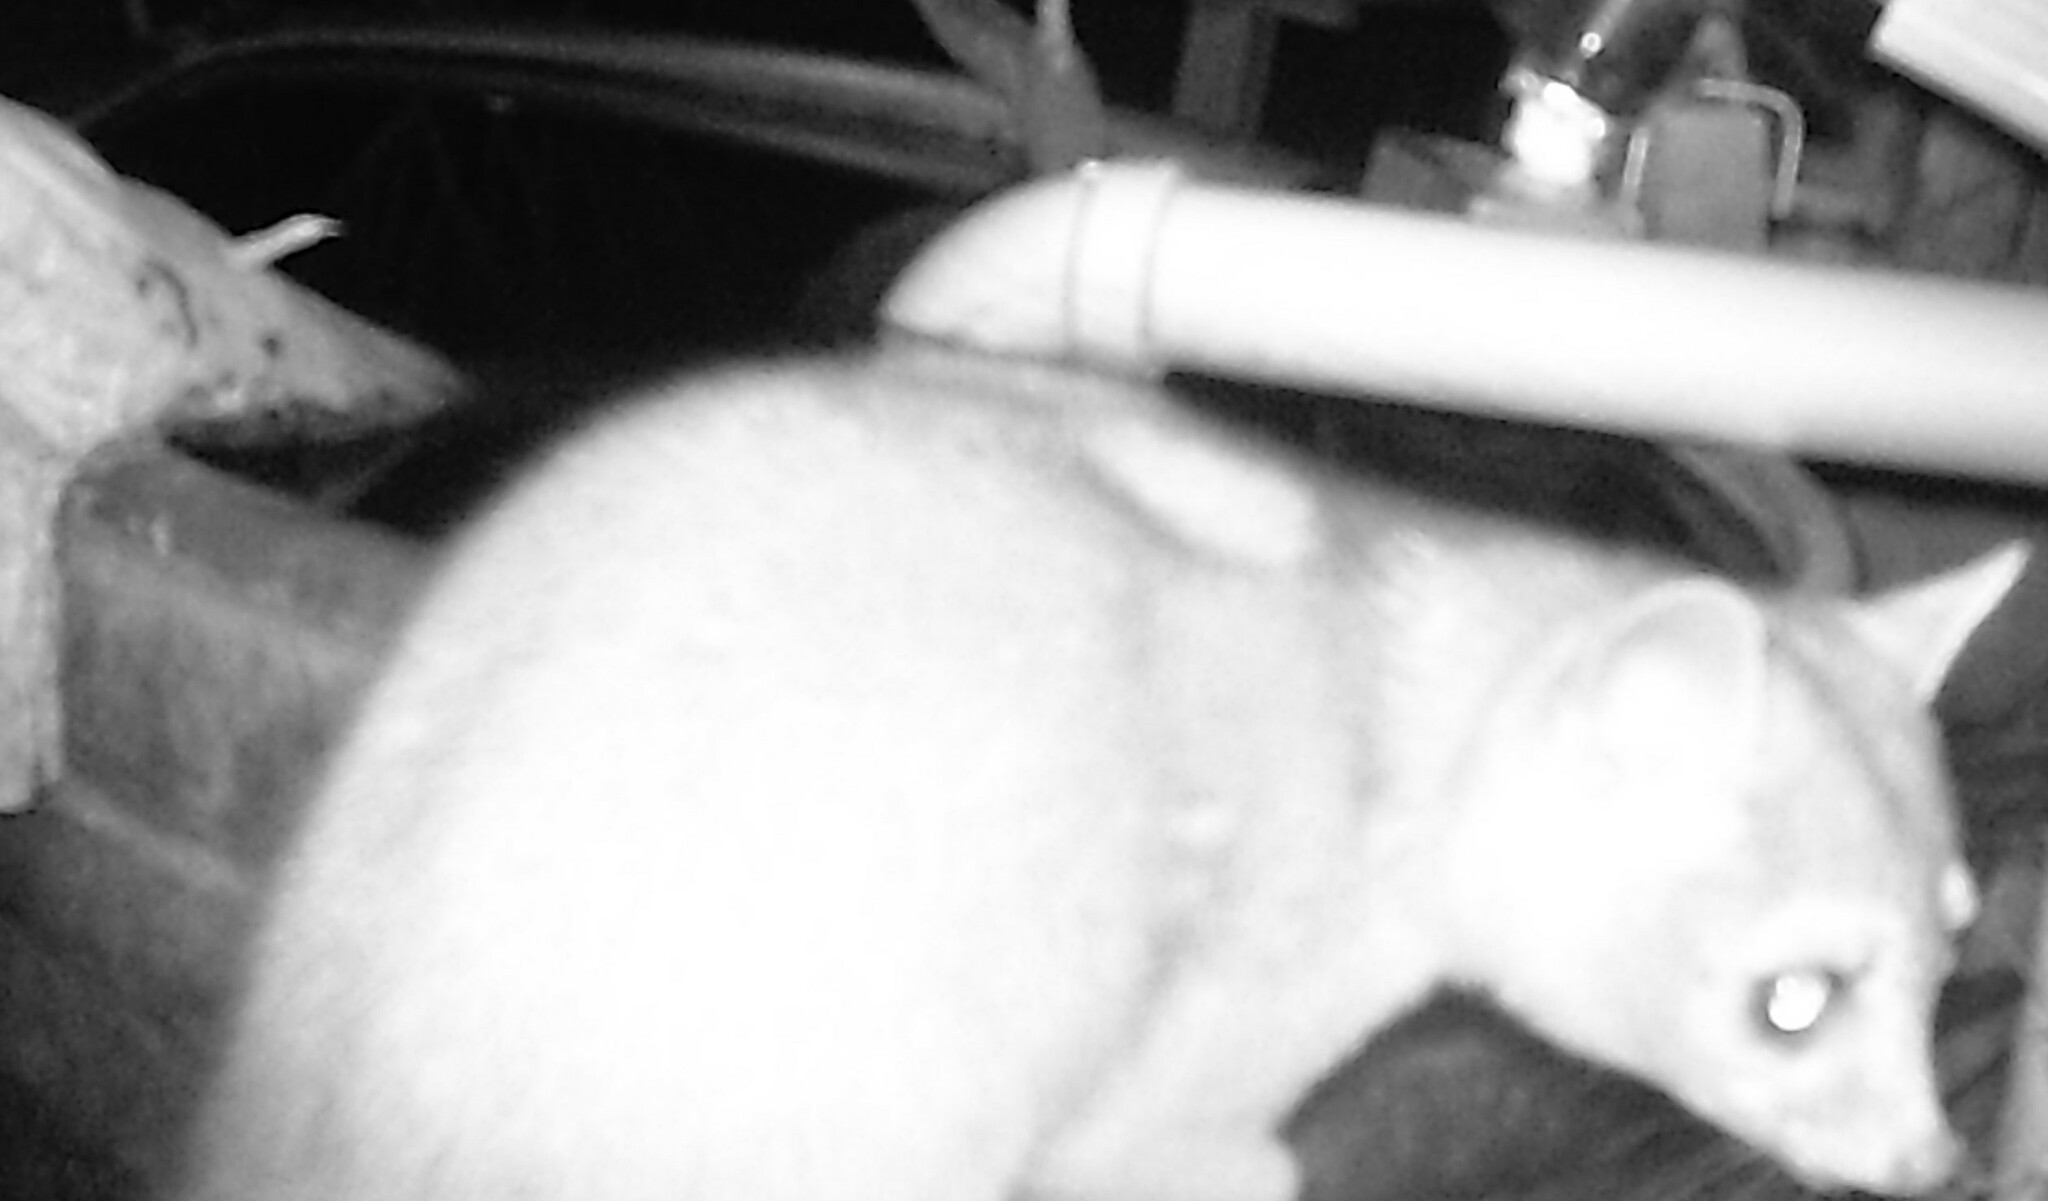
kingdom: Animalia
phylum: Chordata
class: Mammalia
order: Carnivora
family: Procyonidae
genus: Bassariscus
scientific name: Bassariscus astutus
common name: Ringtail
